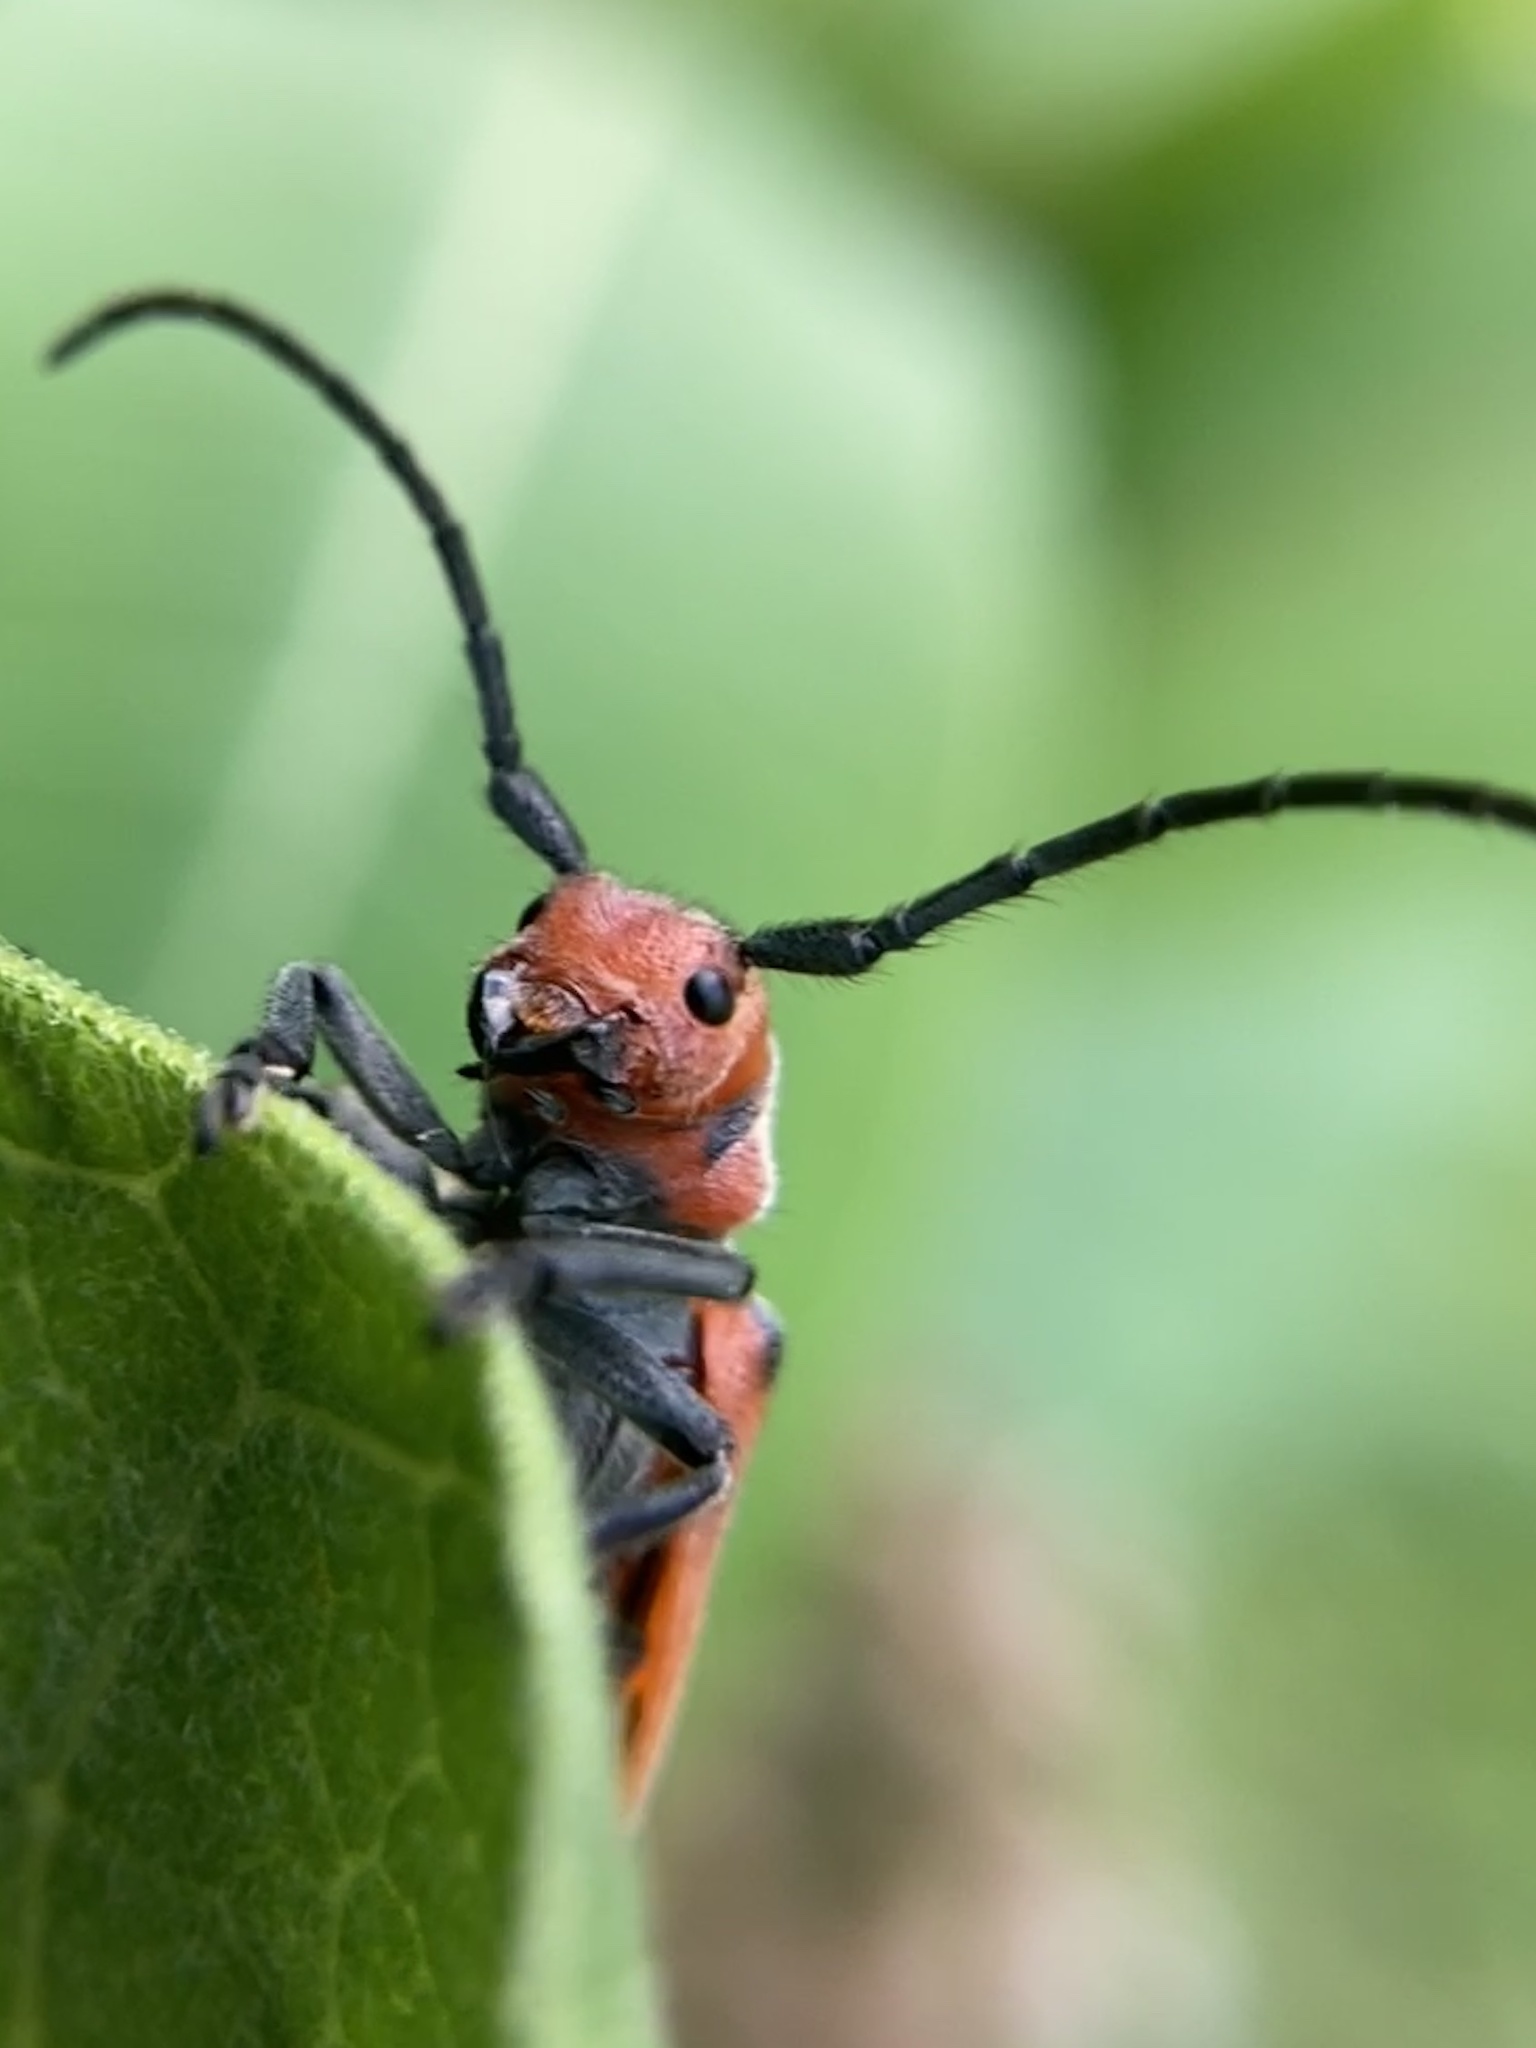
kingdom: Animalia
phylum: Arthropoda
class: Insecta
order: Coleoptera
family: Cerambycidae
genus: Tetraopes
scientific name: Tetraopes tetrophthalmus
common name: Red milkweed beetle
